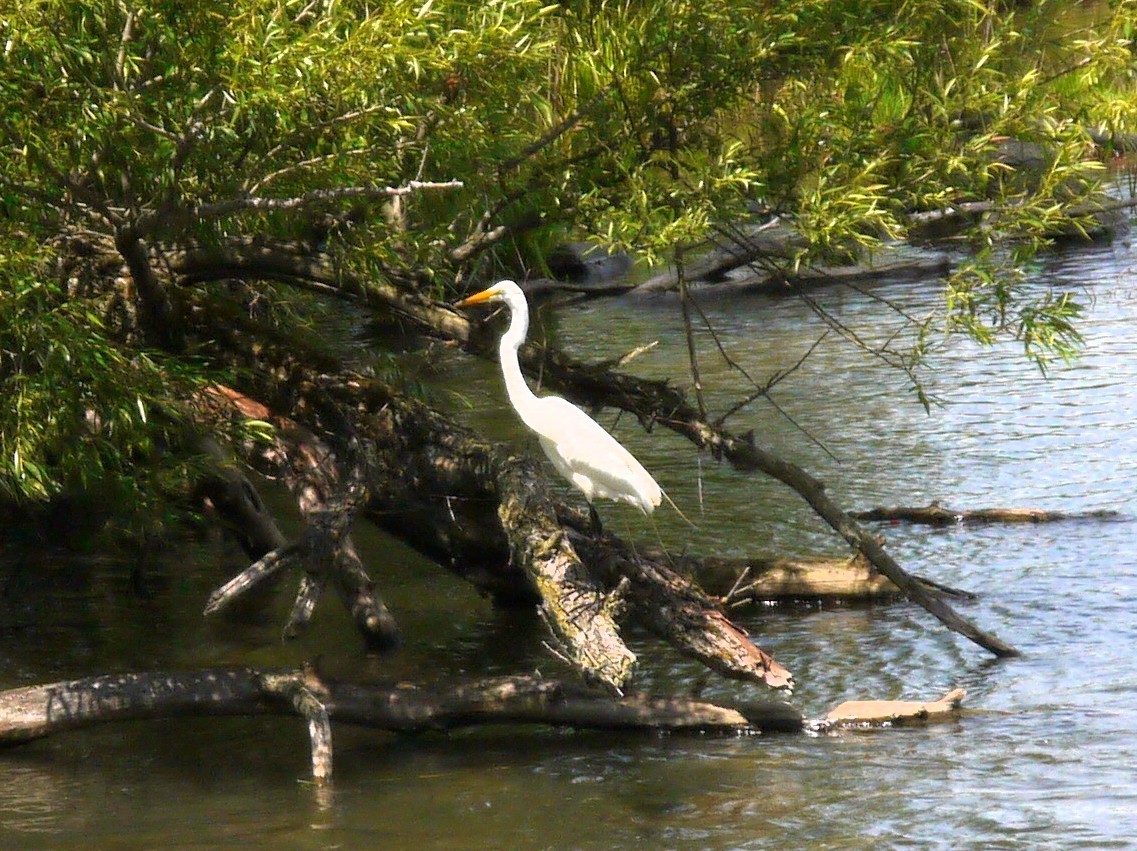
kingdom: Animalia
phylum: Chordata
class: Aves
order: Pelecaniformes
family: Ardeidae
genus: Ardea
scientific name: Ardea alba
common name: Great egret
